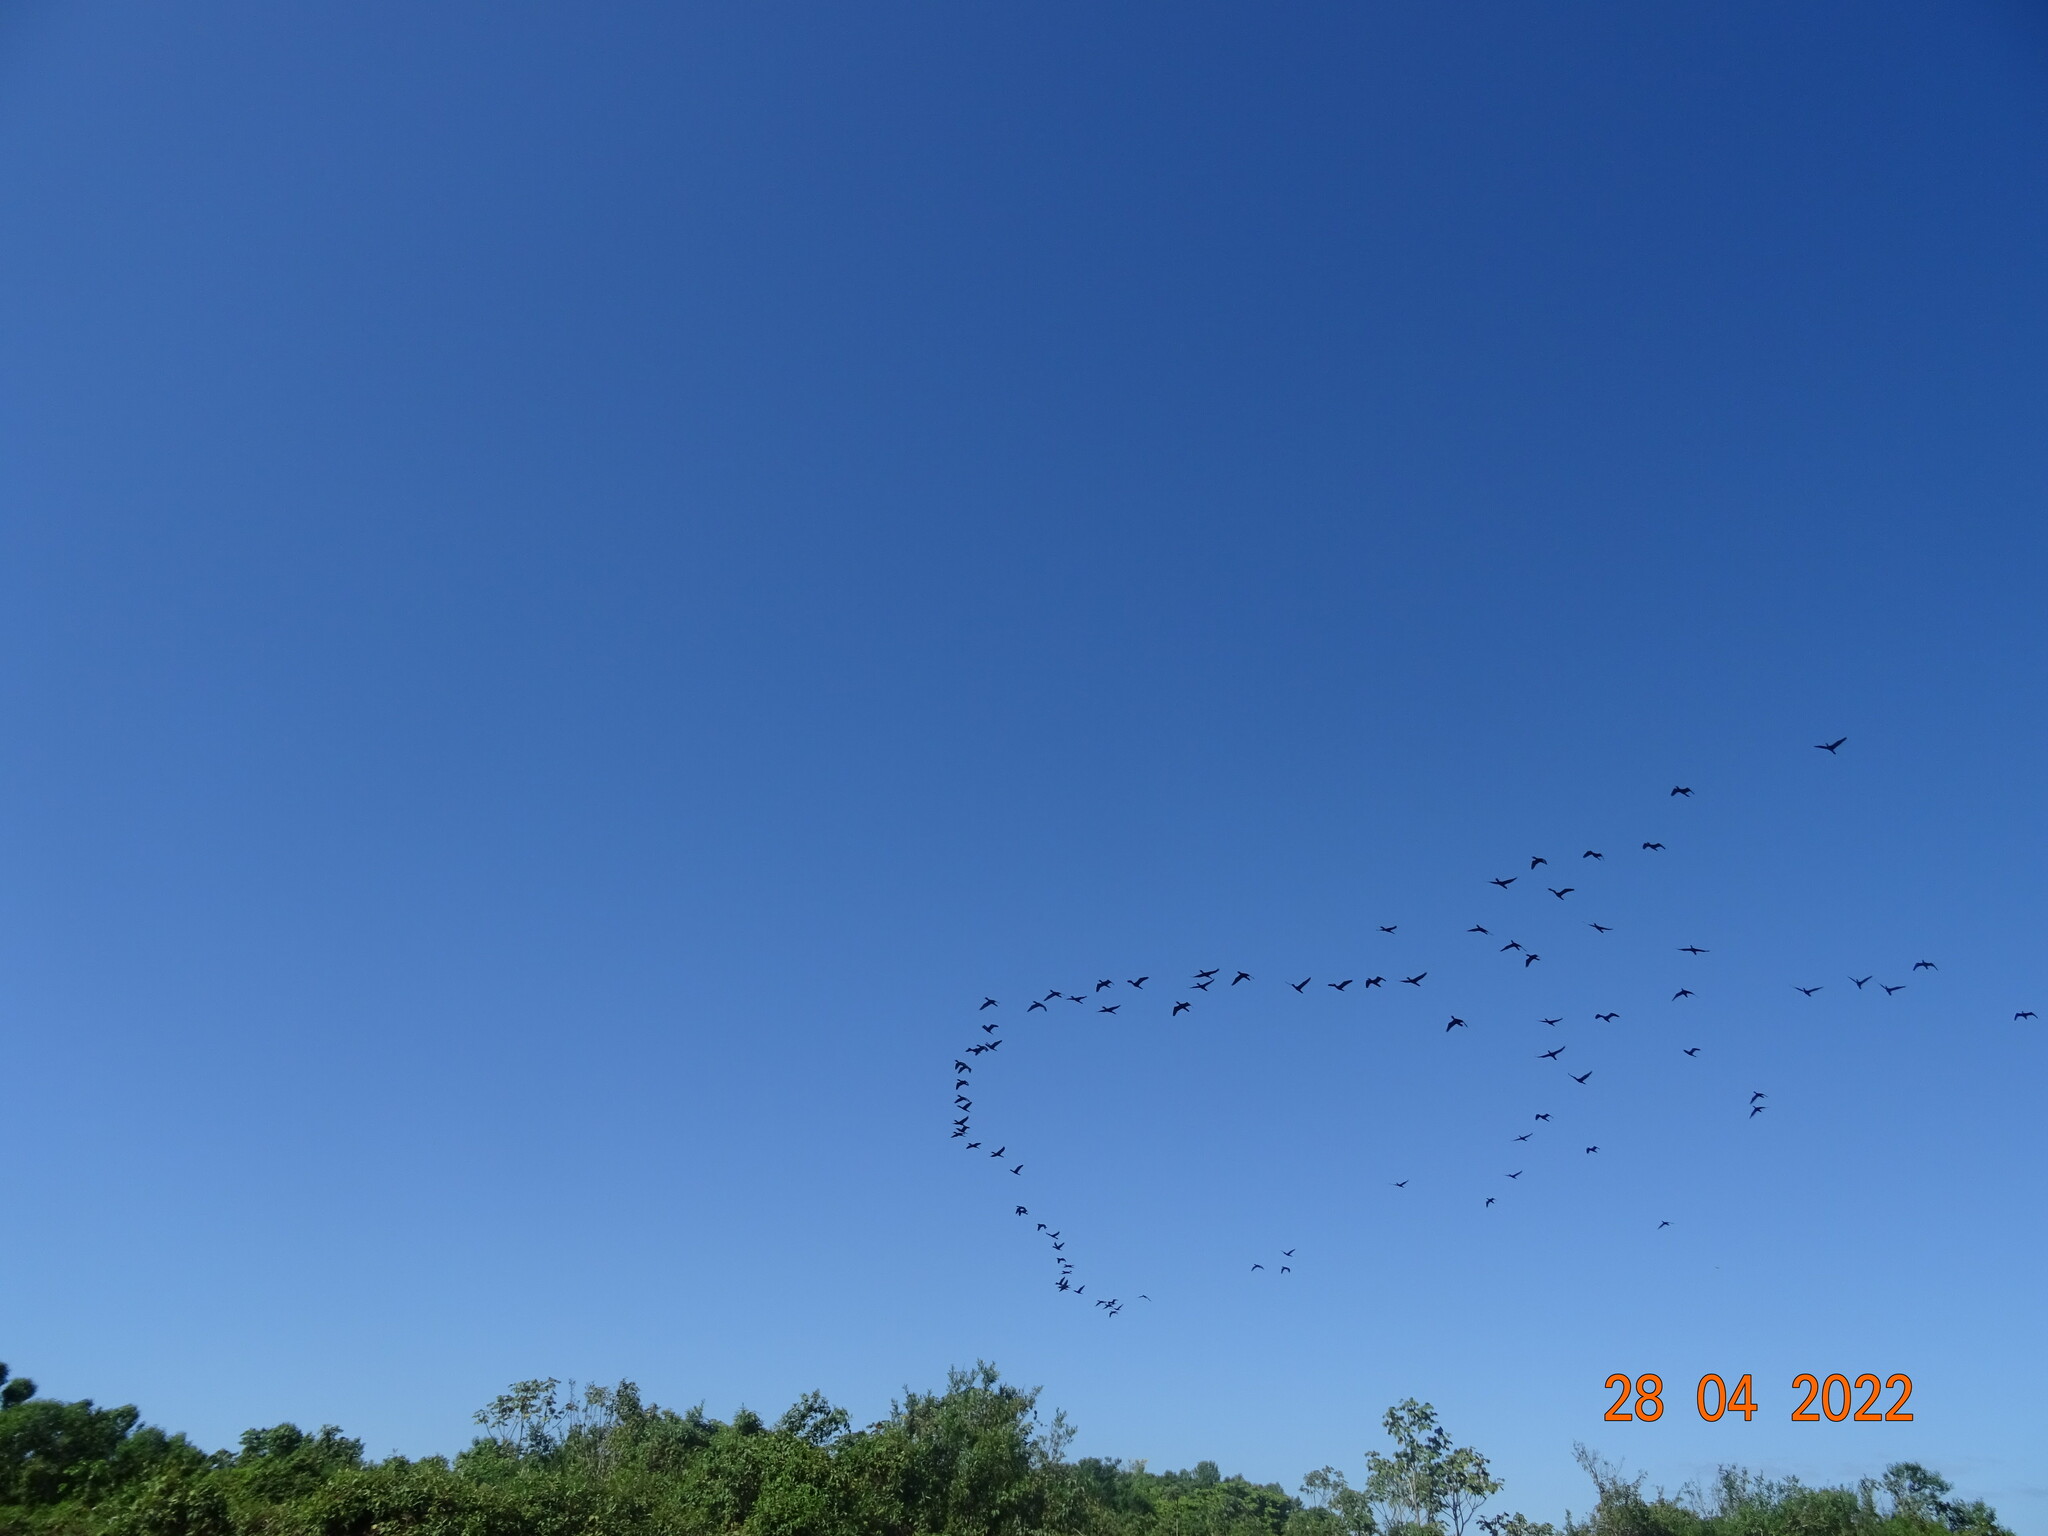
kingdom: Animalia
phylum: Chordata
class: Aves
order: Suliformes
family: Phalacrocoracidae
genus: Phalacrocorax
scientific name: Phalacrocorax brasilianus
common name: Neotropic cormorant
